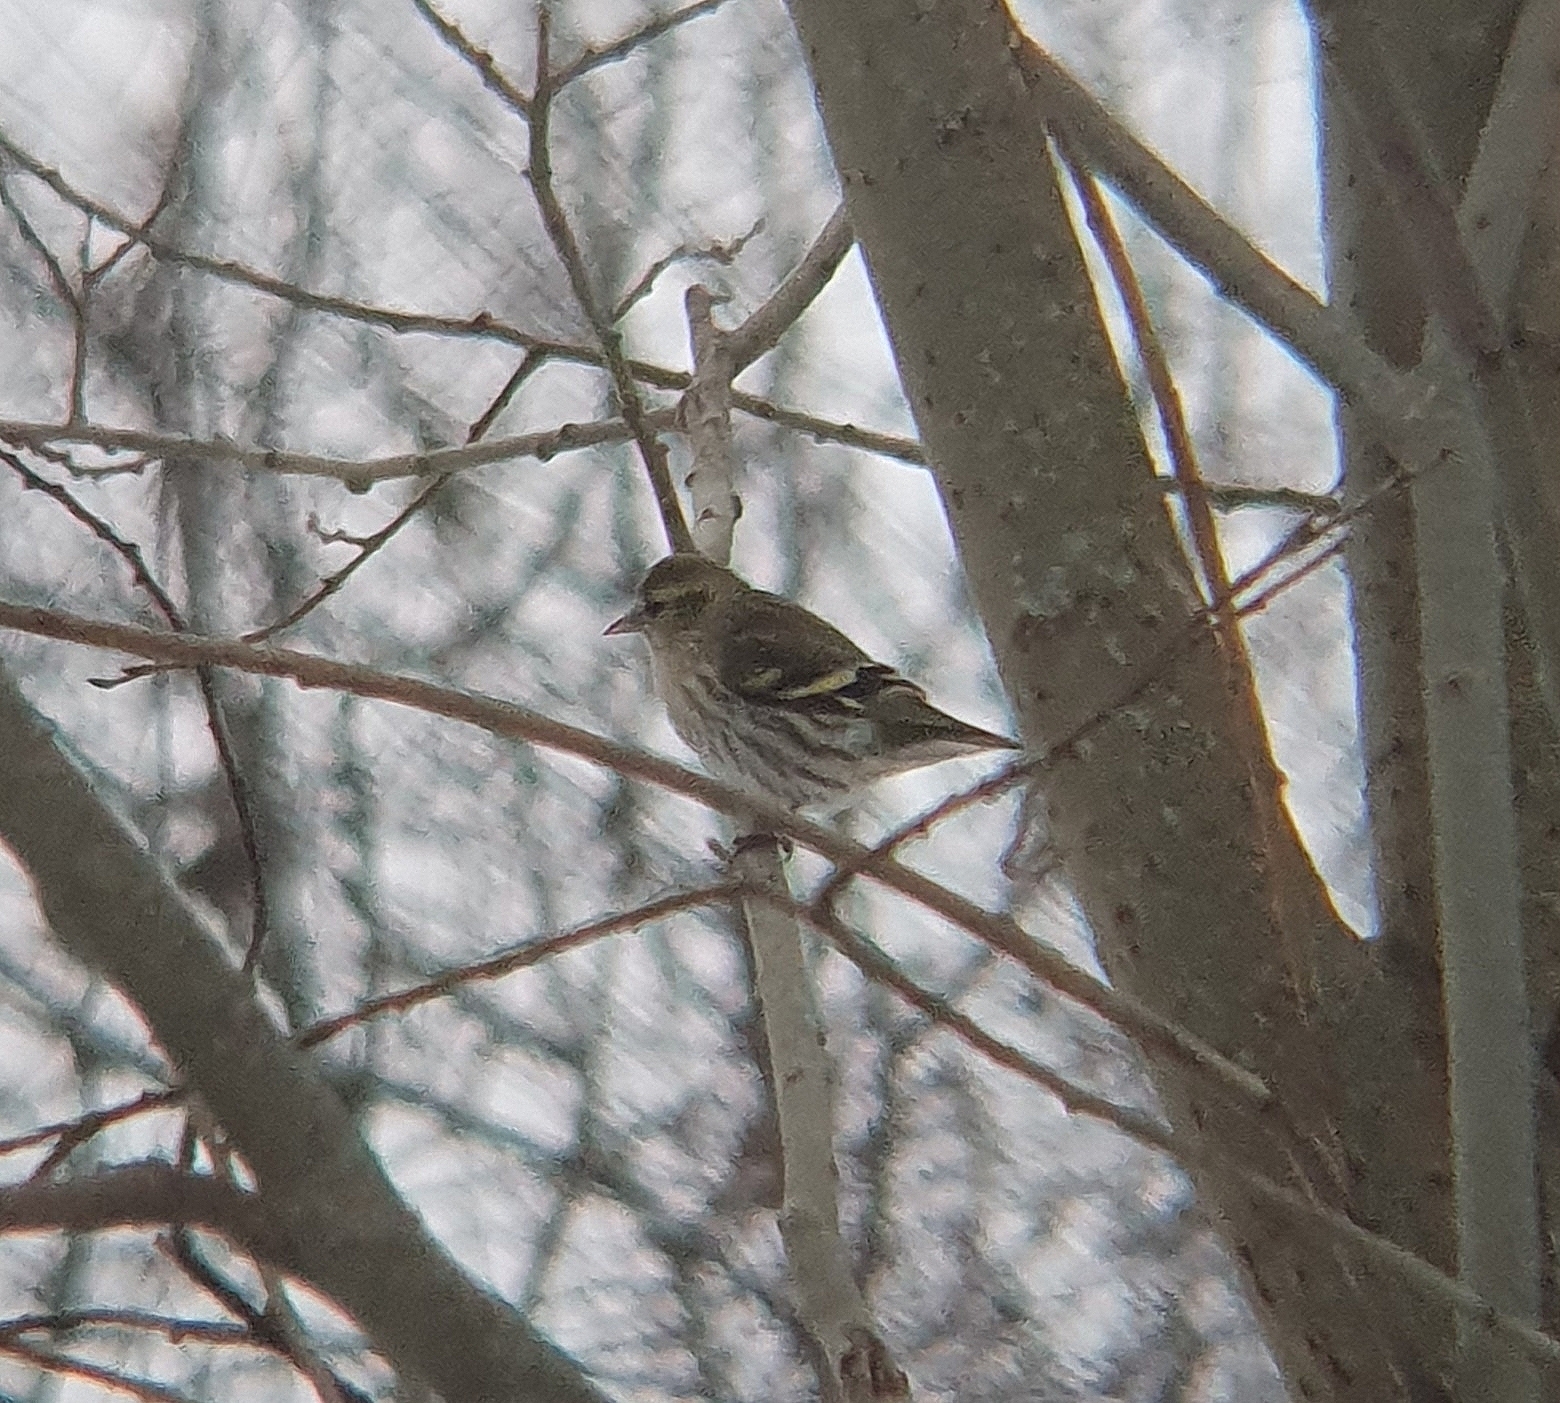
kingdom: Animalia
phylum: Chordata
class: Aves
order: Passeriformes
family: Fringillidae
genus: Spinus
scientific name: Spinus spinus
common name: Eurasian siskin
